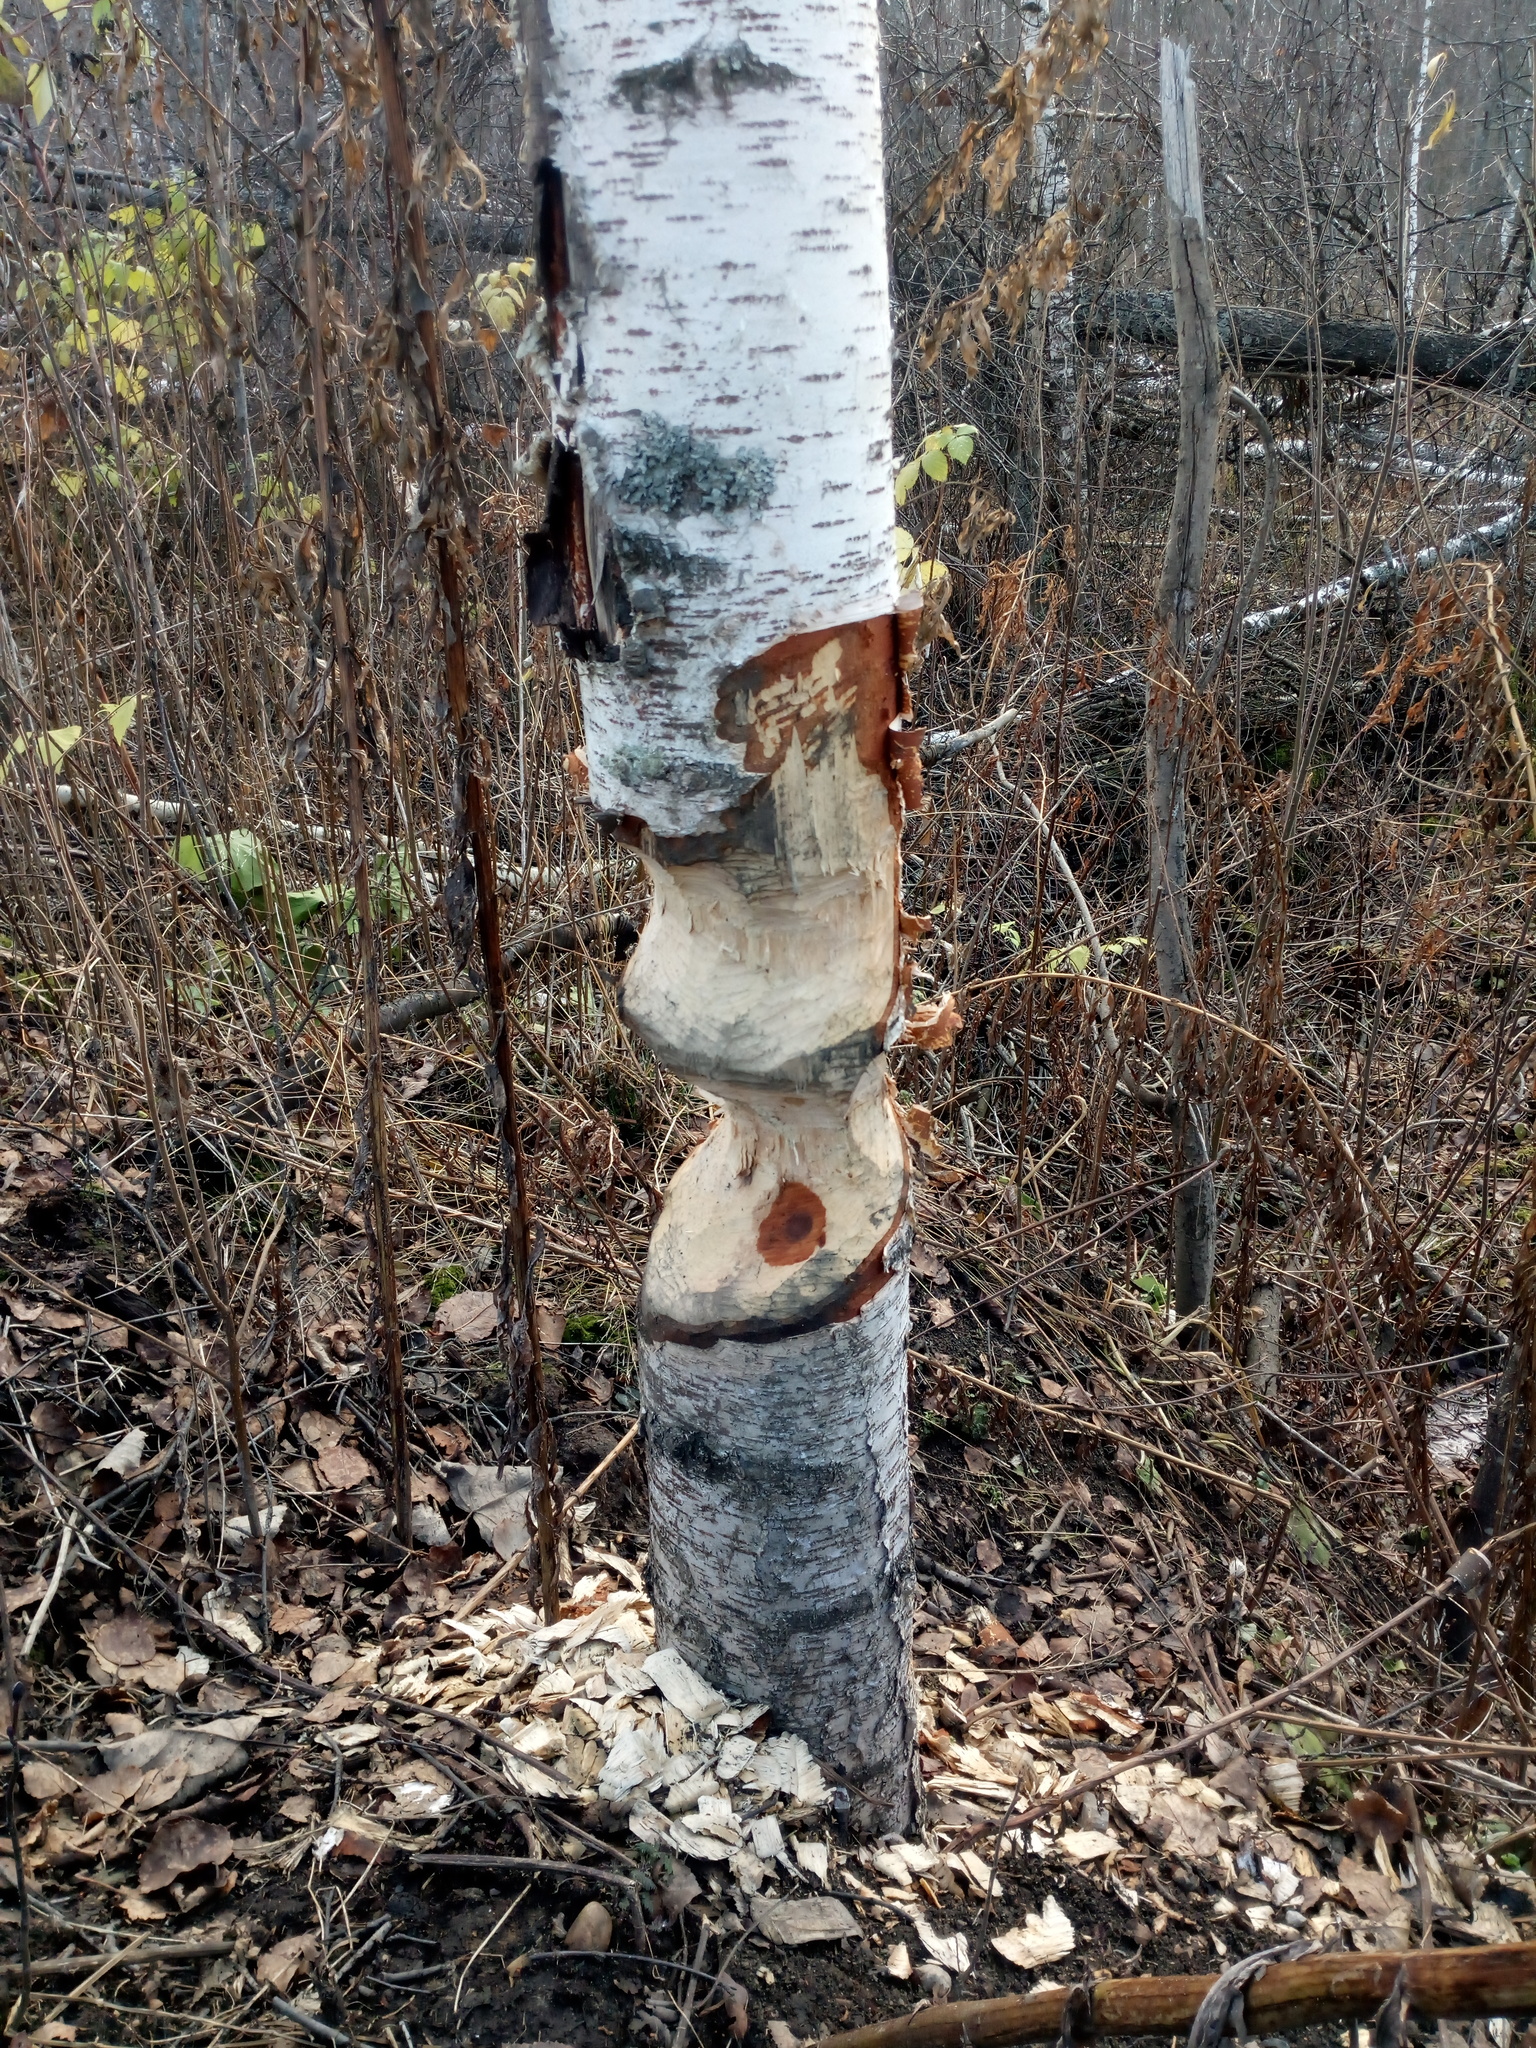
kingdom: Animalia
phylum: Chordata
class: Mammalia
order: Rodentia
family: Castoridae
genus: Castor
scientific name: Castor fiber
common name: Eurasian beaver
